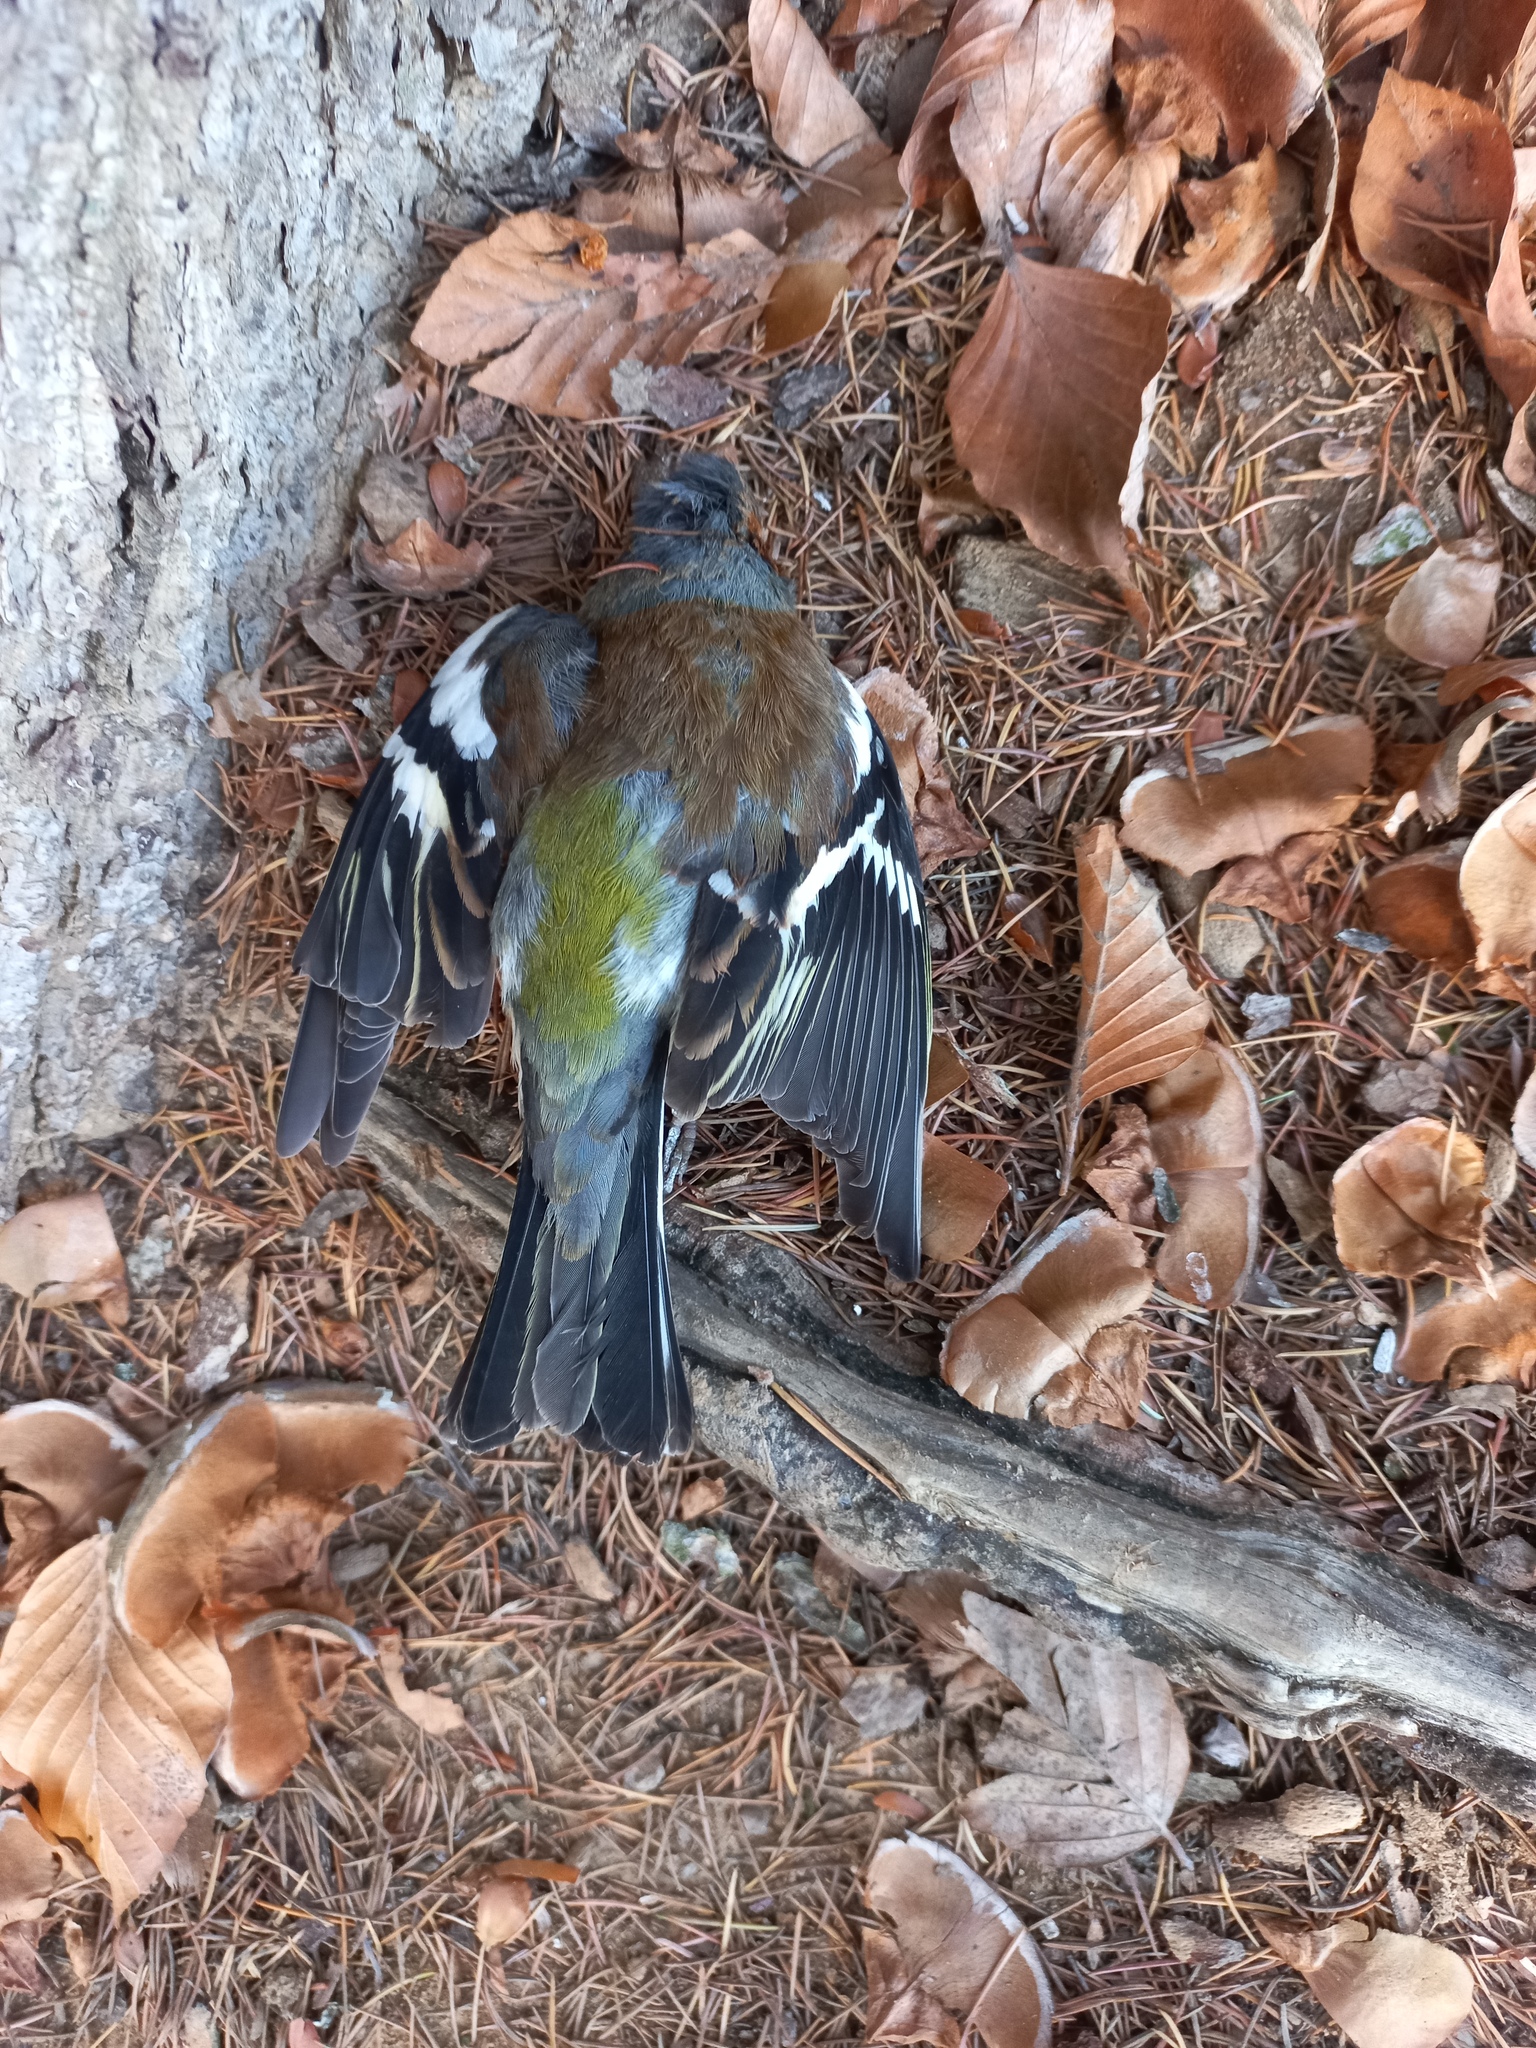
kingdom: Animalia
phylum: Chordata
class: Aves
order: Passeriformes
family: Fringillidae
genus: Fringilla
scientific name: Fringilla coelebs
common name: Common chaffinch
